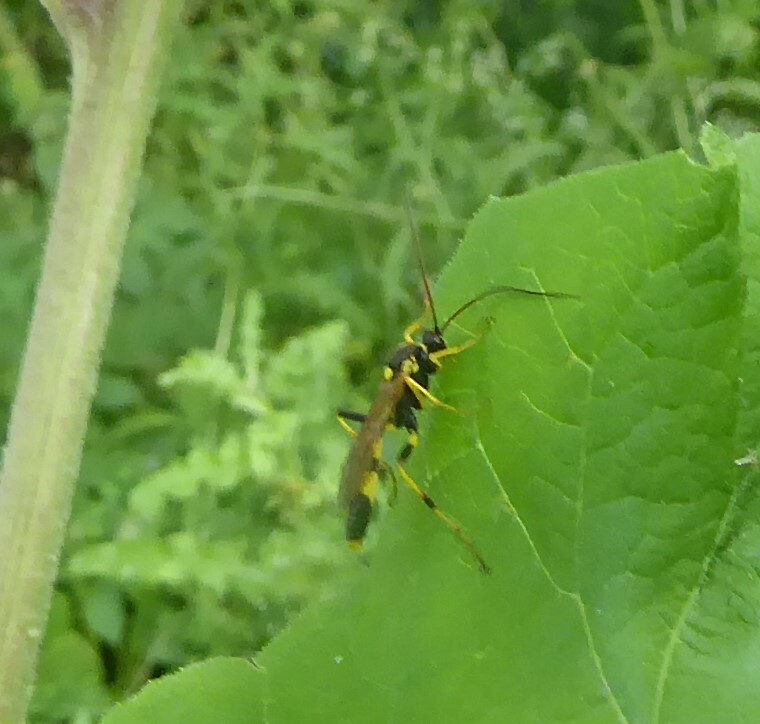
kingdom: Animalia
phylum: Arthropoda
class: Insecta
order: Hymenoptera
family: Ichneumonidae
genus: Amblyteles
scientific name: Amblyteles armatorius
